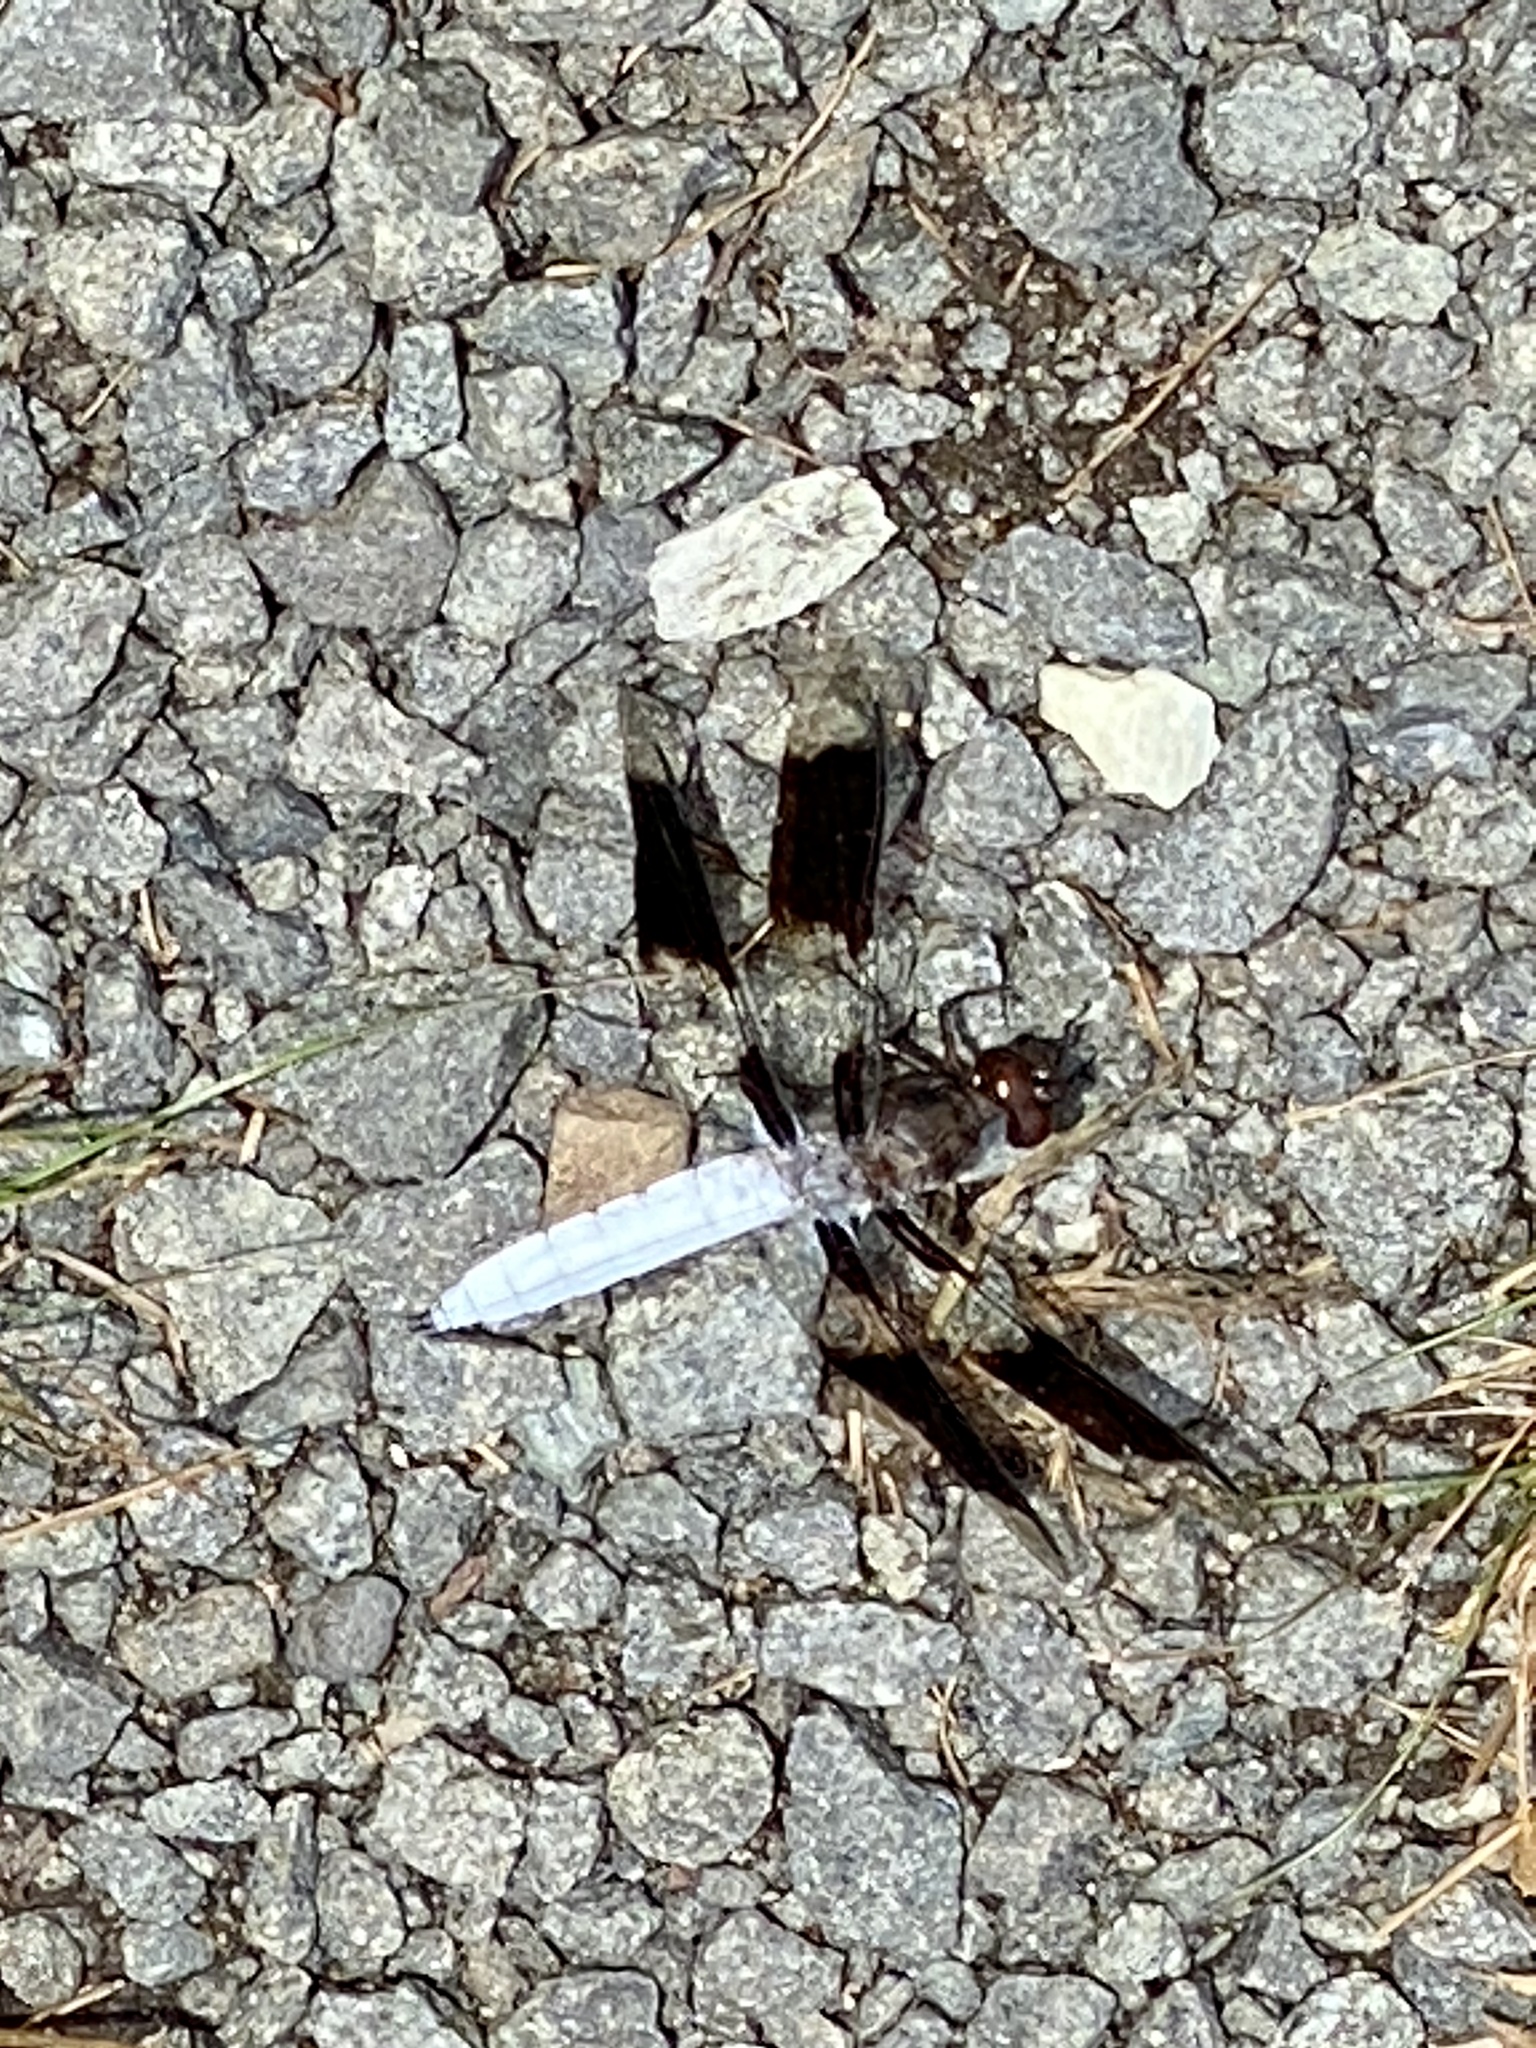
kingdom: Animalia
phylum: Arthropoda
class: Insecta
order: Odonata
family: Libellulidae
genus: Plathemis
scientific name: Plathemis lydia
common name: Common whitetail
